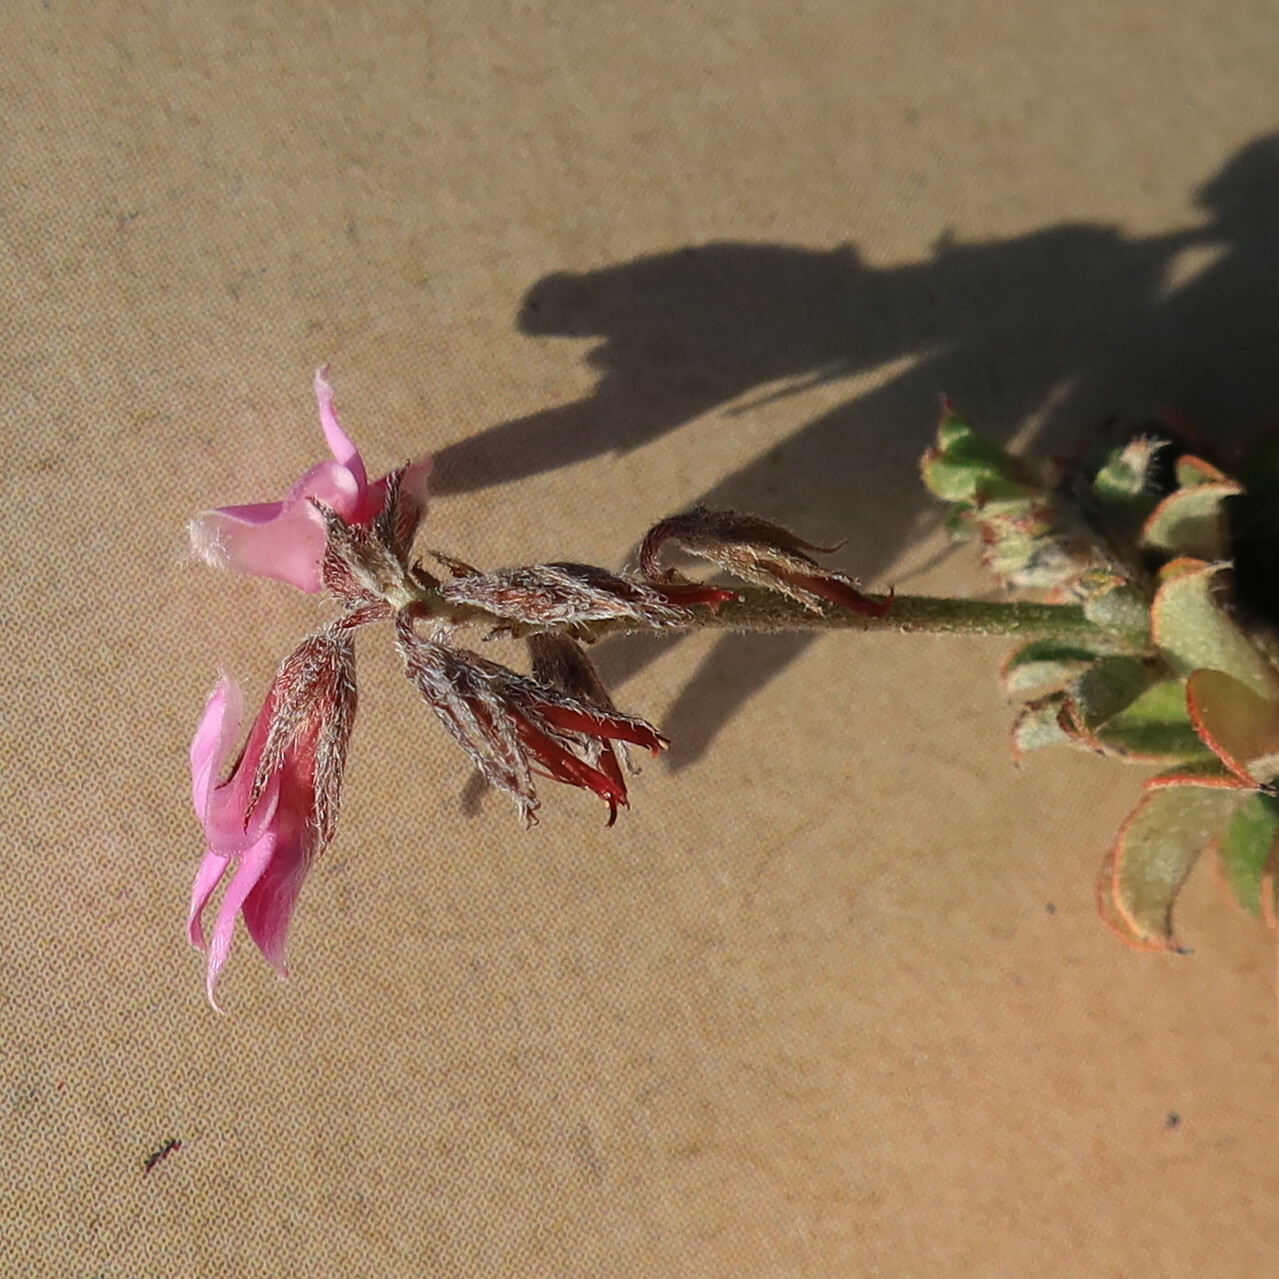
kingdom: Plantae
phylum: Tracheophyta
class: Magnoliopsida
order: Fabales
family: Fabaceae
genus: Indigofera
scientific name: Indigofera mauritanica
